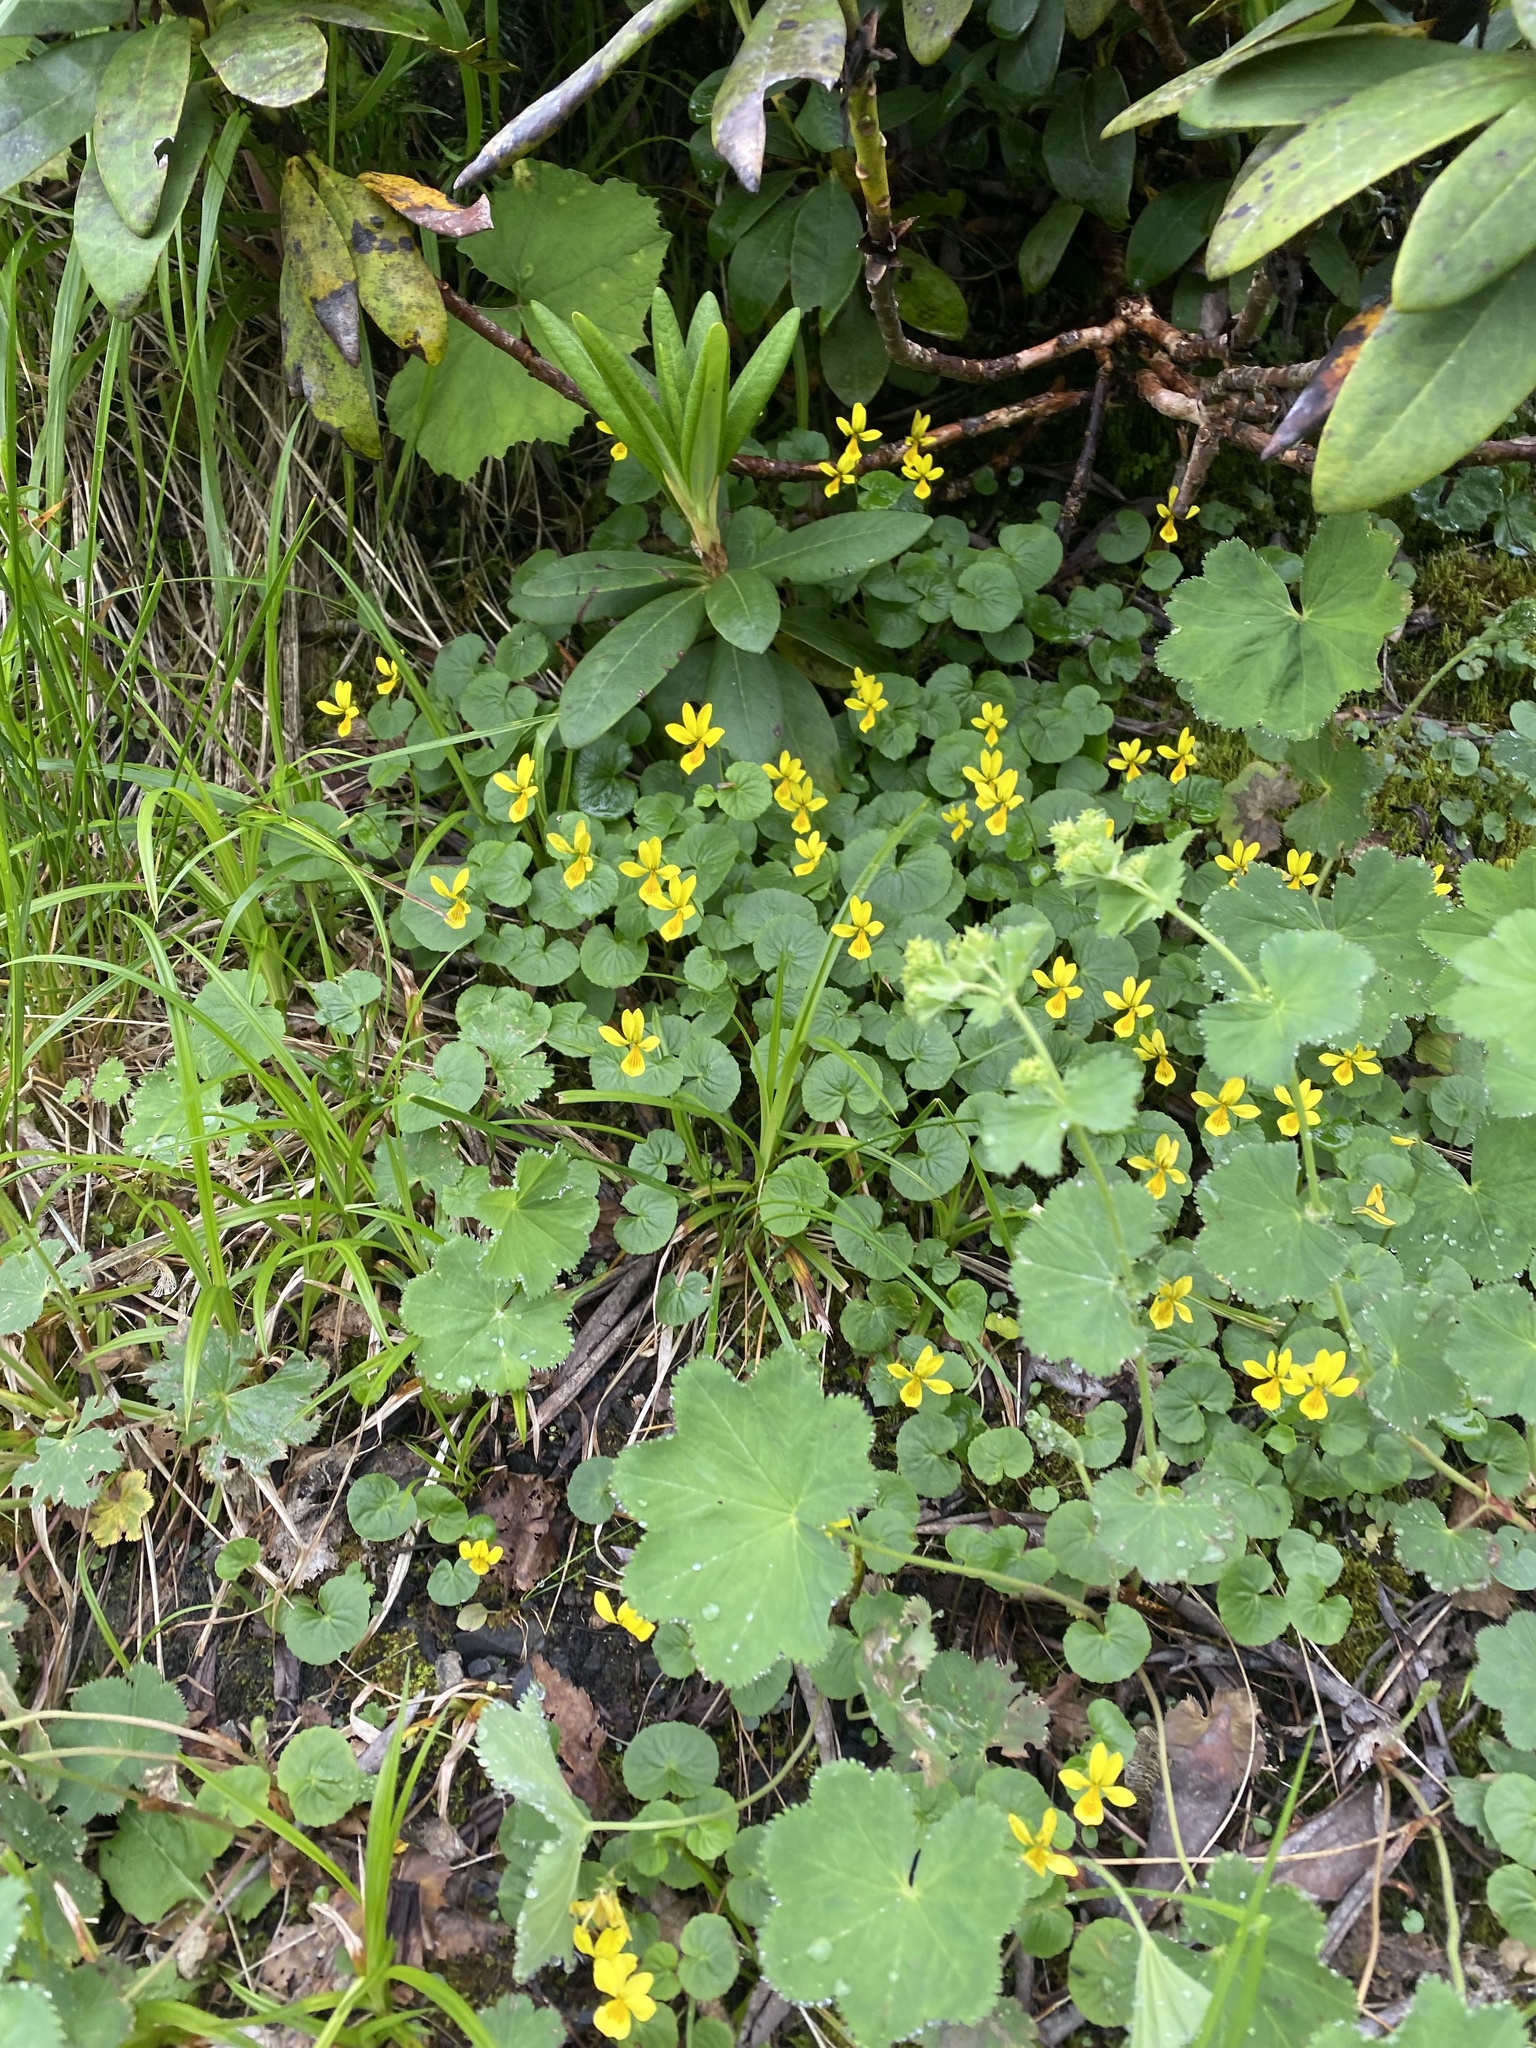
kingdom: Plantae
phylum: Tracheophyta
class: Magnoliopsida
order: Malpighiales
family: Violaceae
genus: Viola
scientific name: Viola caucasica
